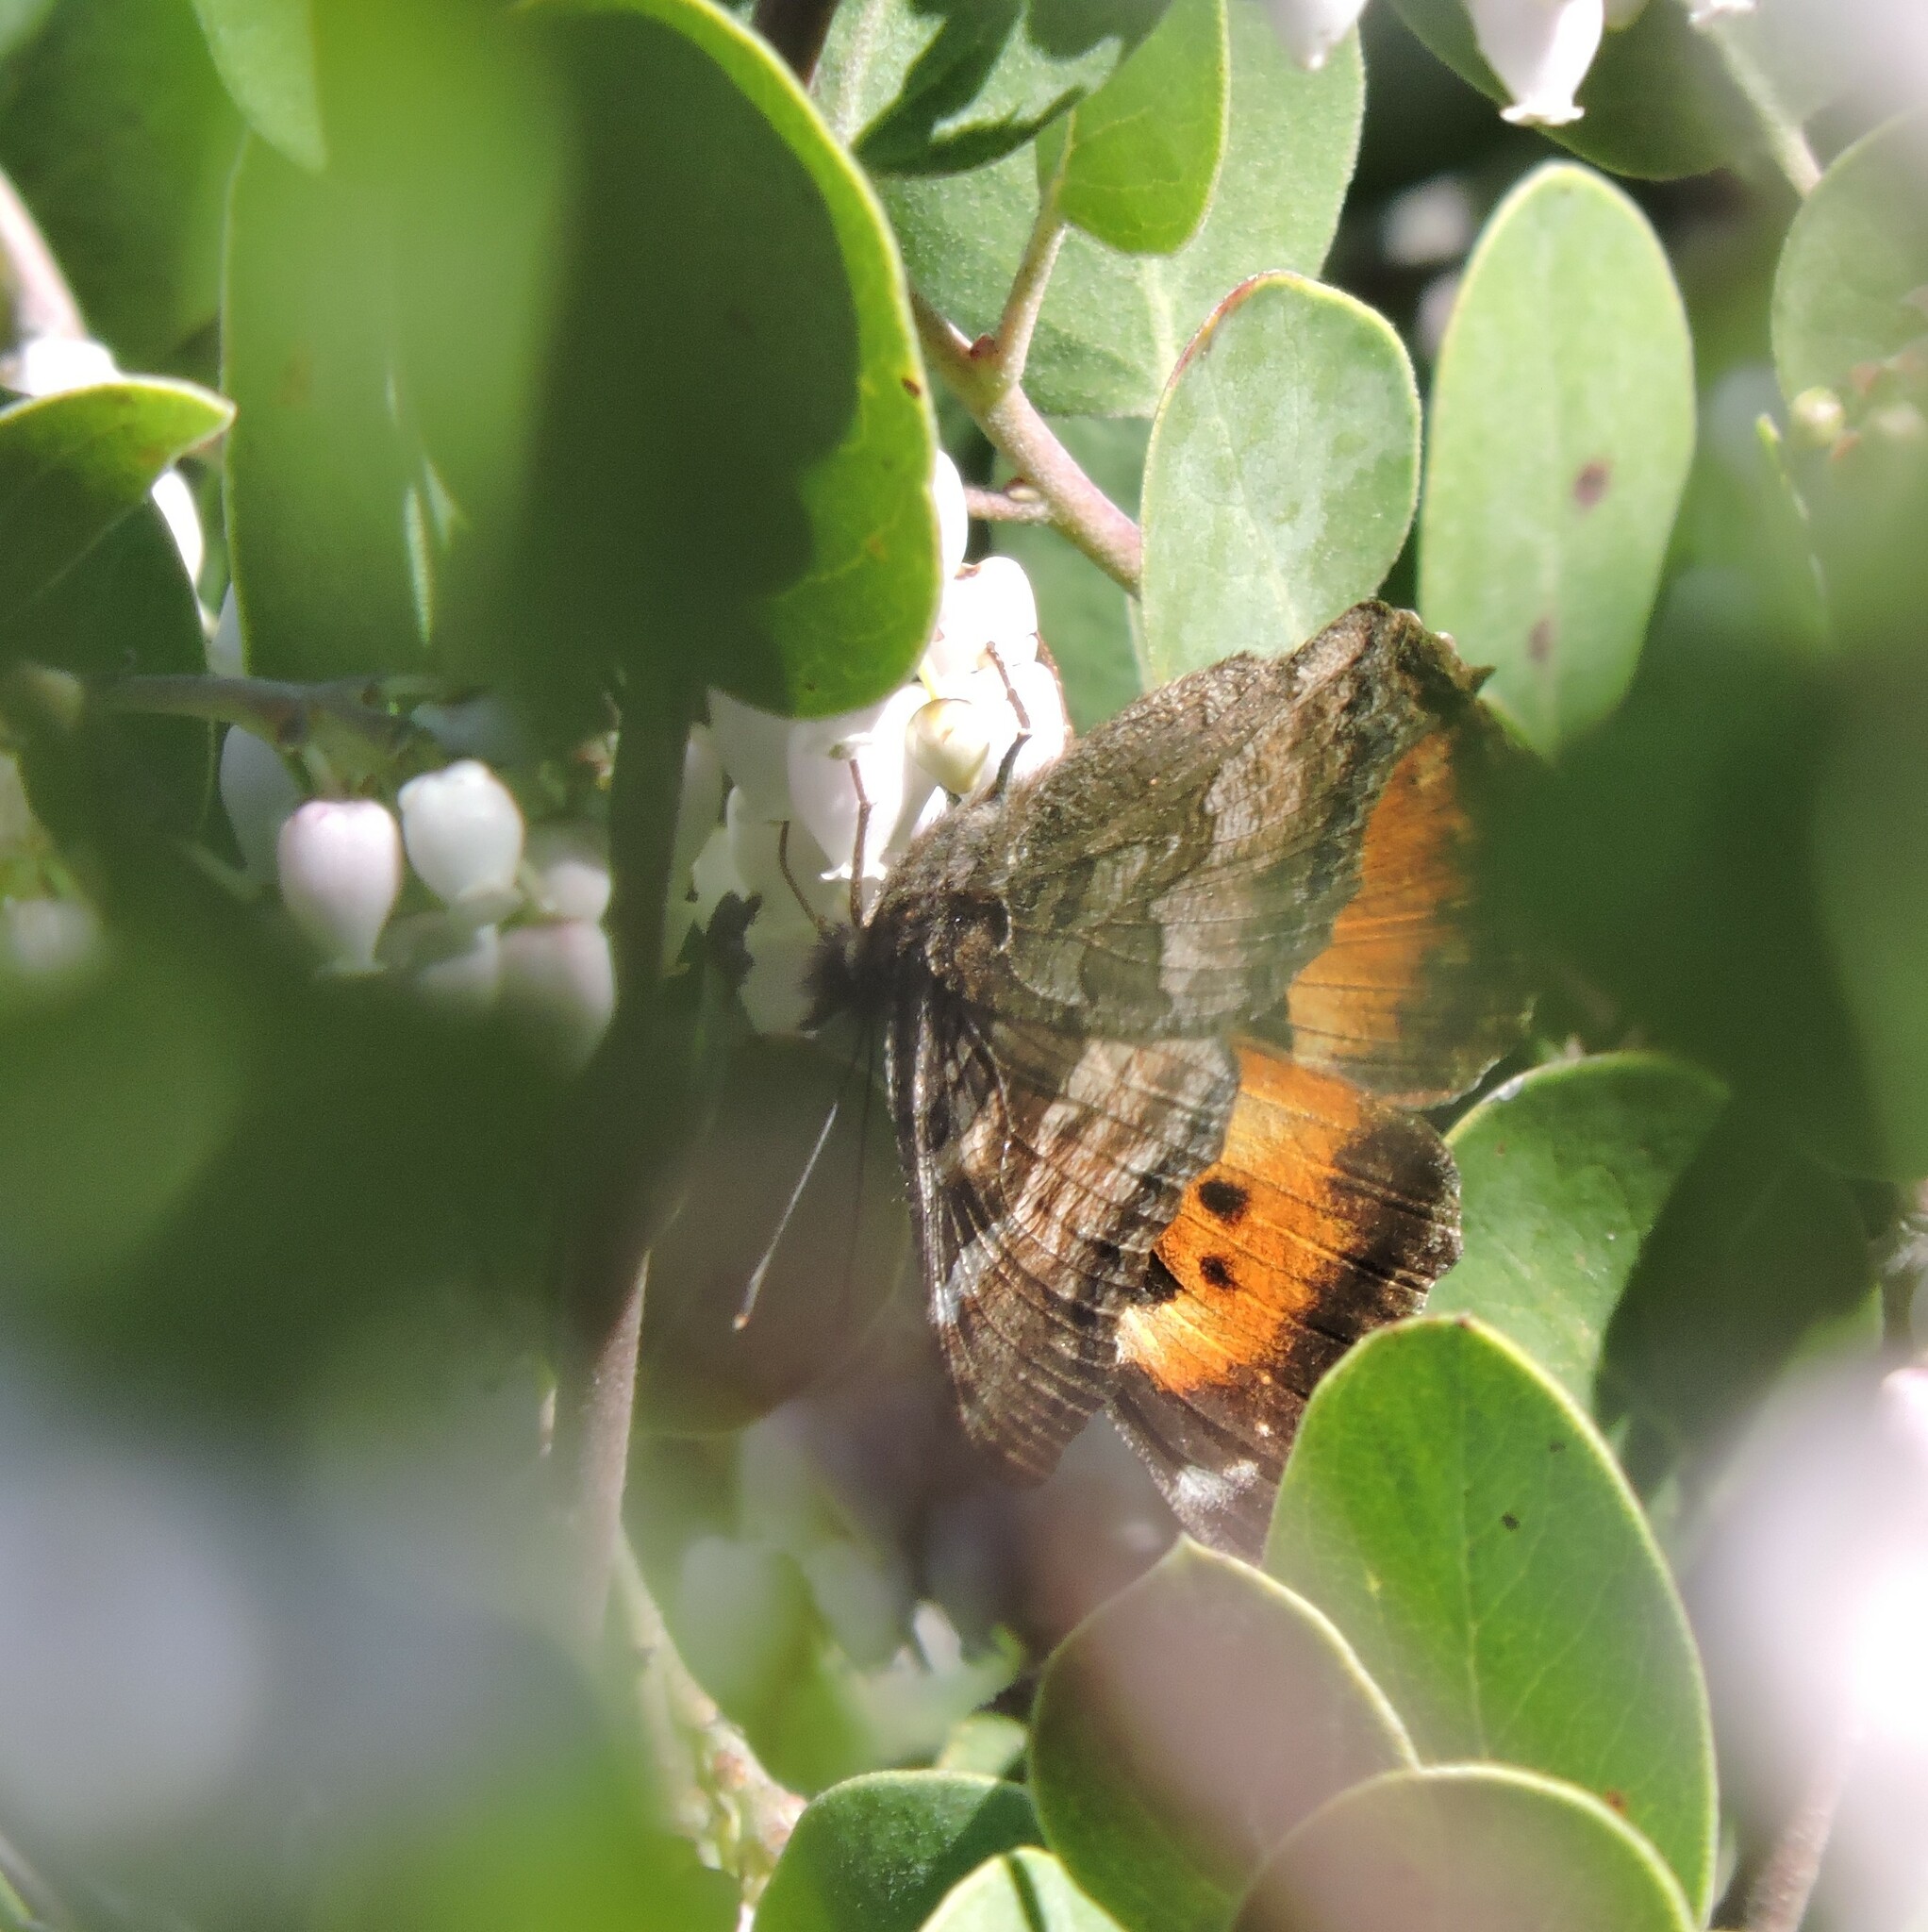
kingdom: Animalia
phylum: Arthropoda
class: Insecta
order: Lepidoptera
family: Nymphalidae
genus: Nymphalis
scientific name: Nymphalis californica
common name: California tortoiseshell
